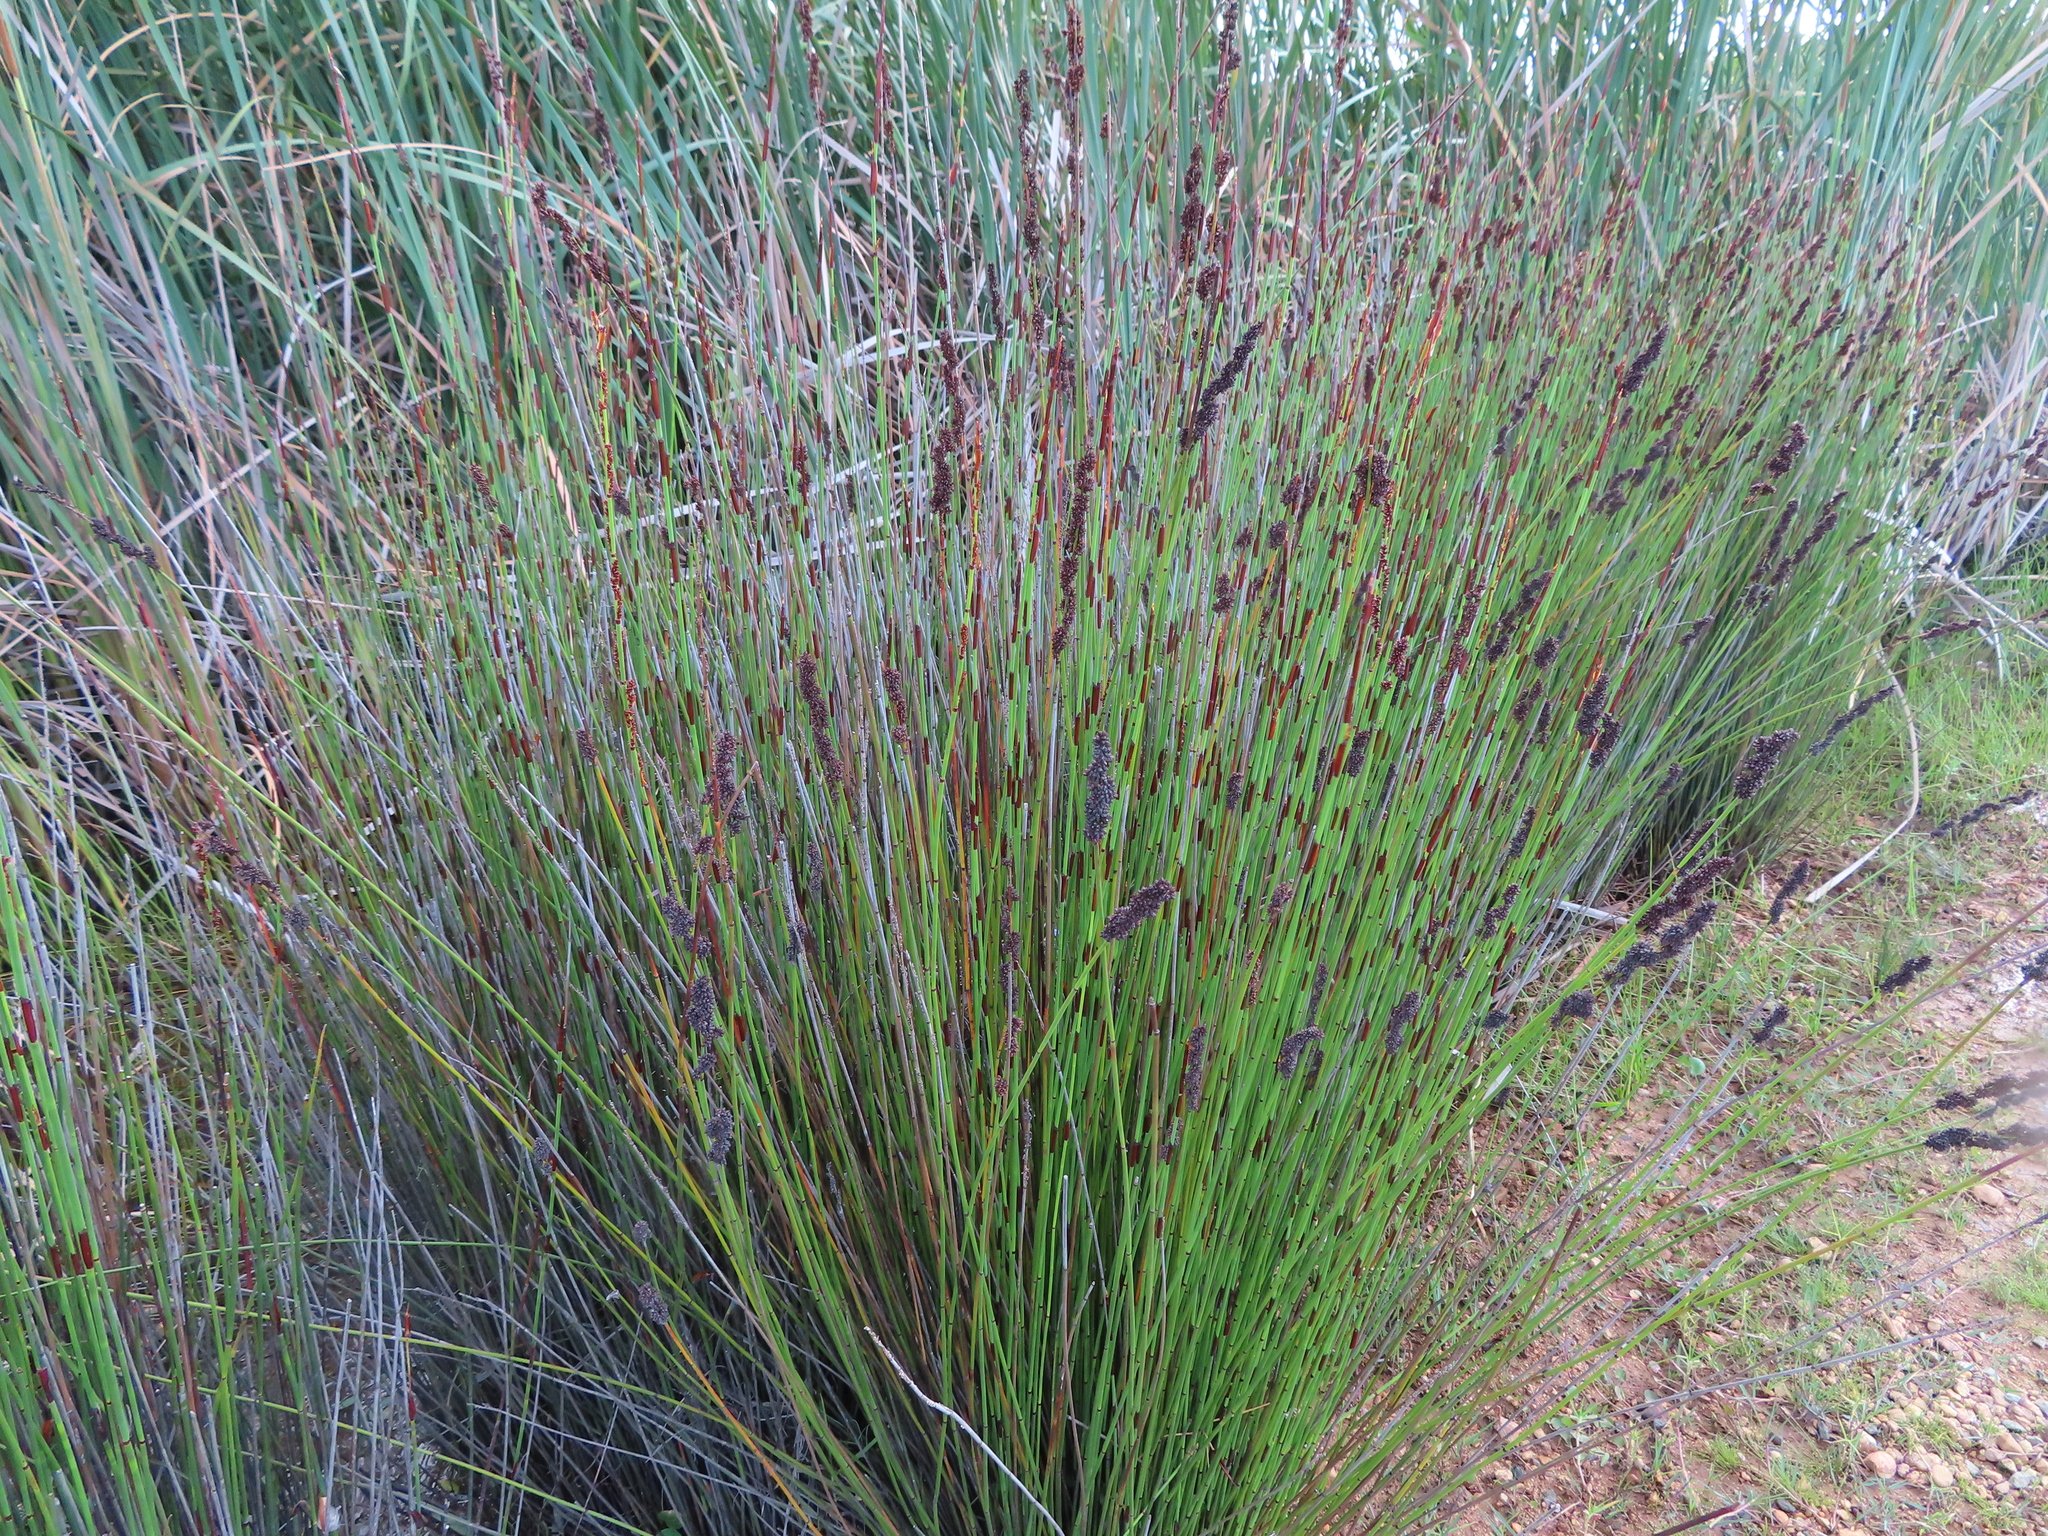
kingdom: Plantae
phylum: Tracheophyta
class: Liliopsida
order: Poales
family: Restionaceae
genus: Elegia
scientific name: Elegia tectorum
